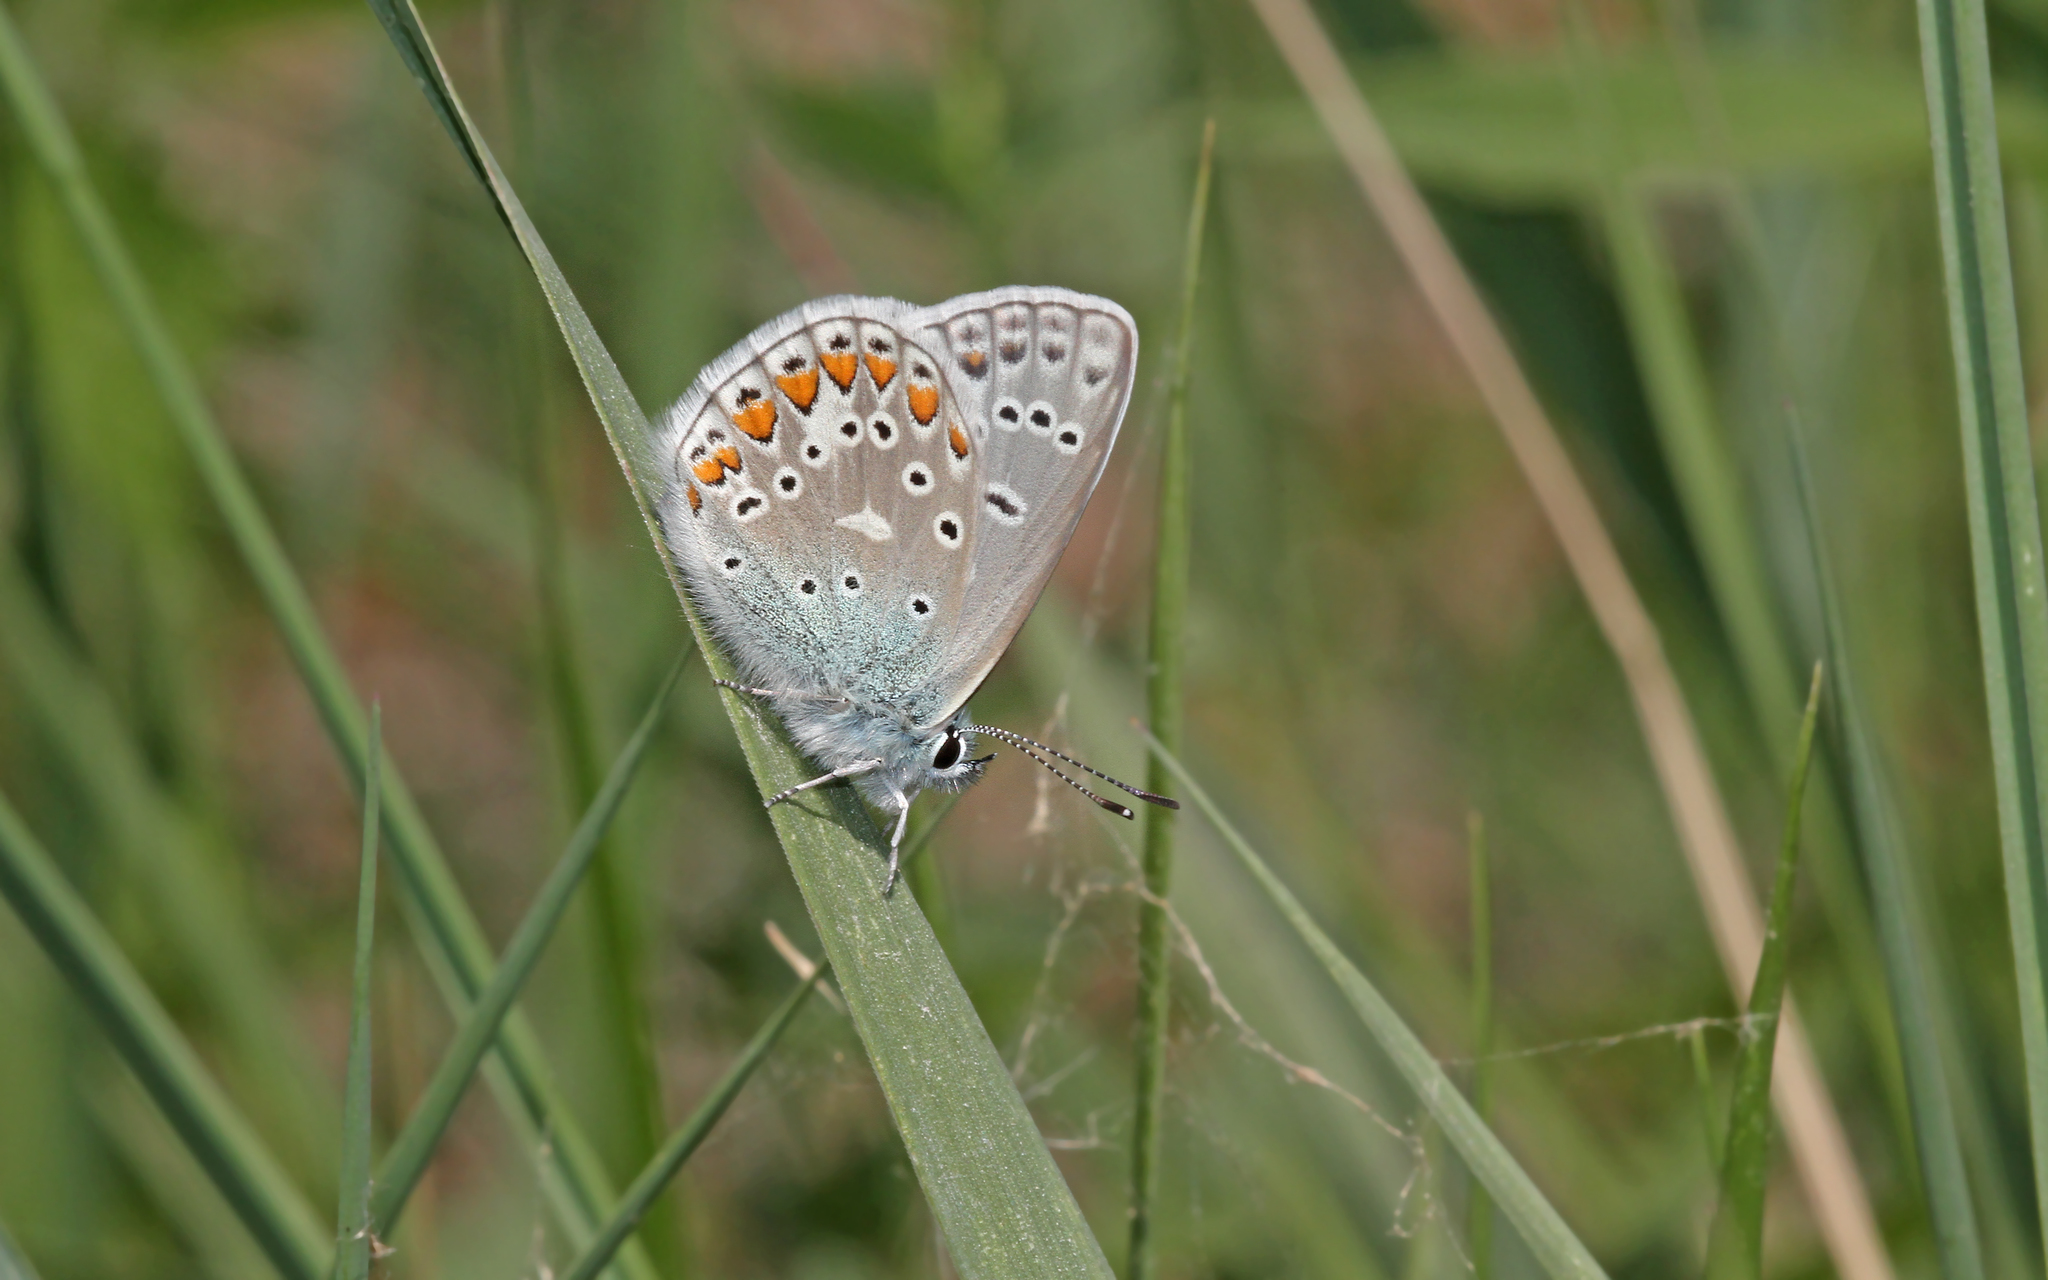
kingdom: Animalia
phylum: Arthropoda
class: Insecta
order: Lepidoptera
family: Lycaenidae
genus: Polyommatus
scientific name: Polyommatus icarus
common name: Common blue
